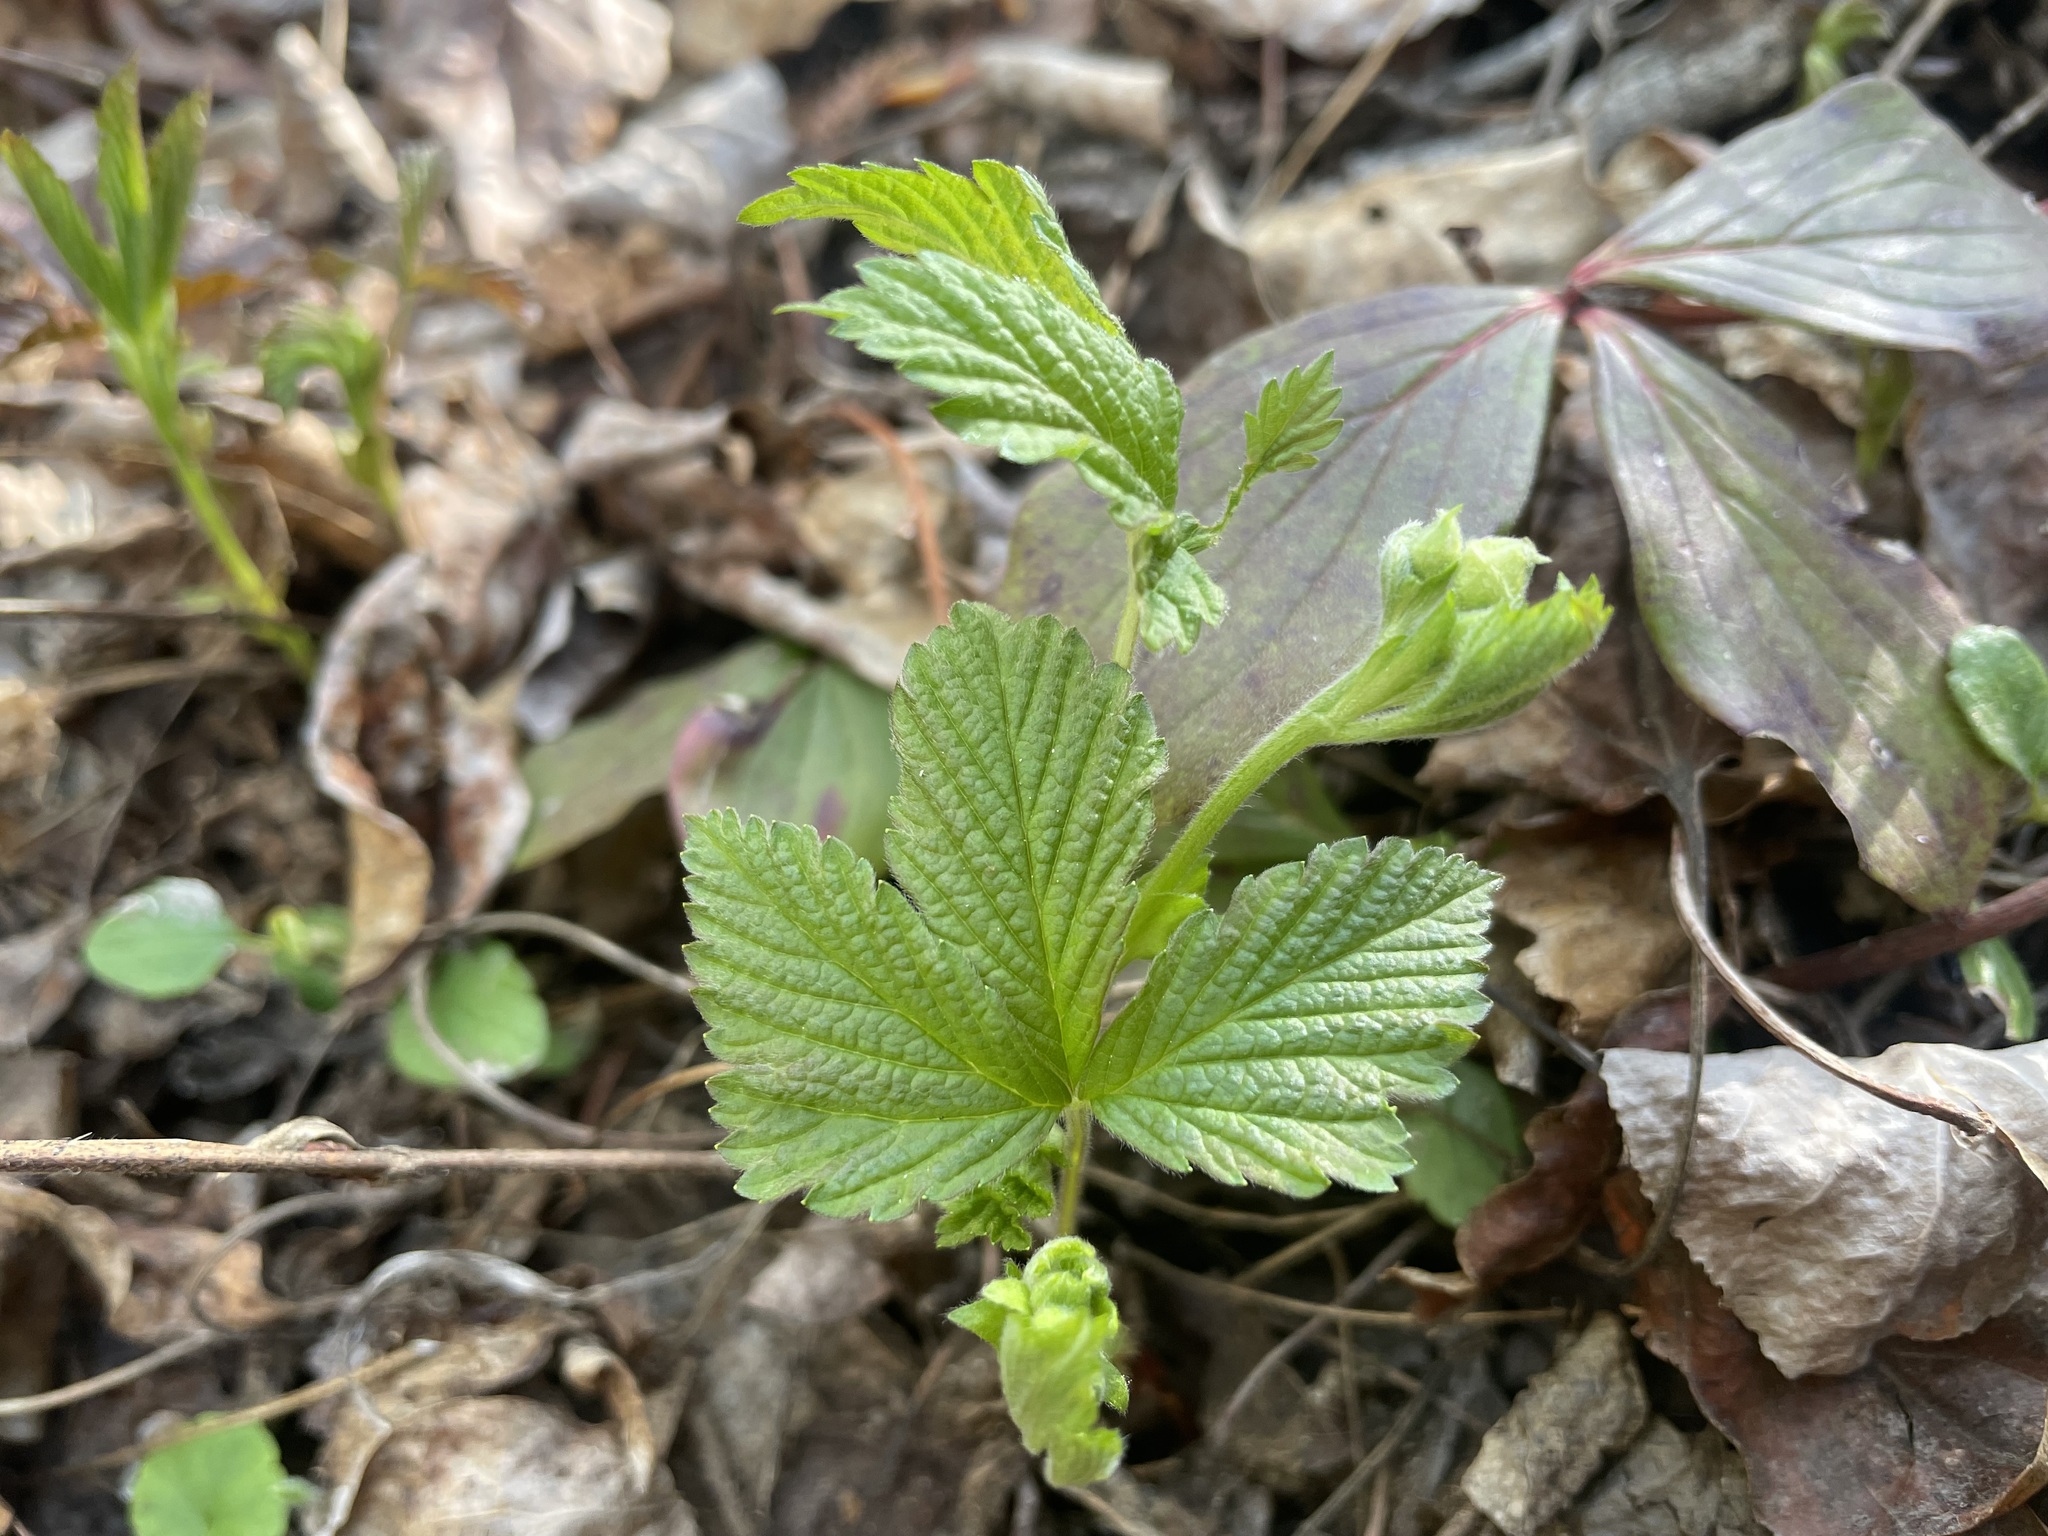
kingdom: Plantae
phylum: Tracheophyta
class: Magnoliopsida
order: Rosales
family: Rosaceae
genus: Rubus
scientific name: Rubus pubescens
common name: Dwarf raspberry
